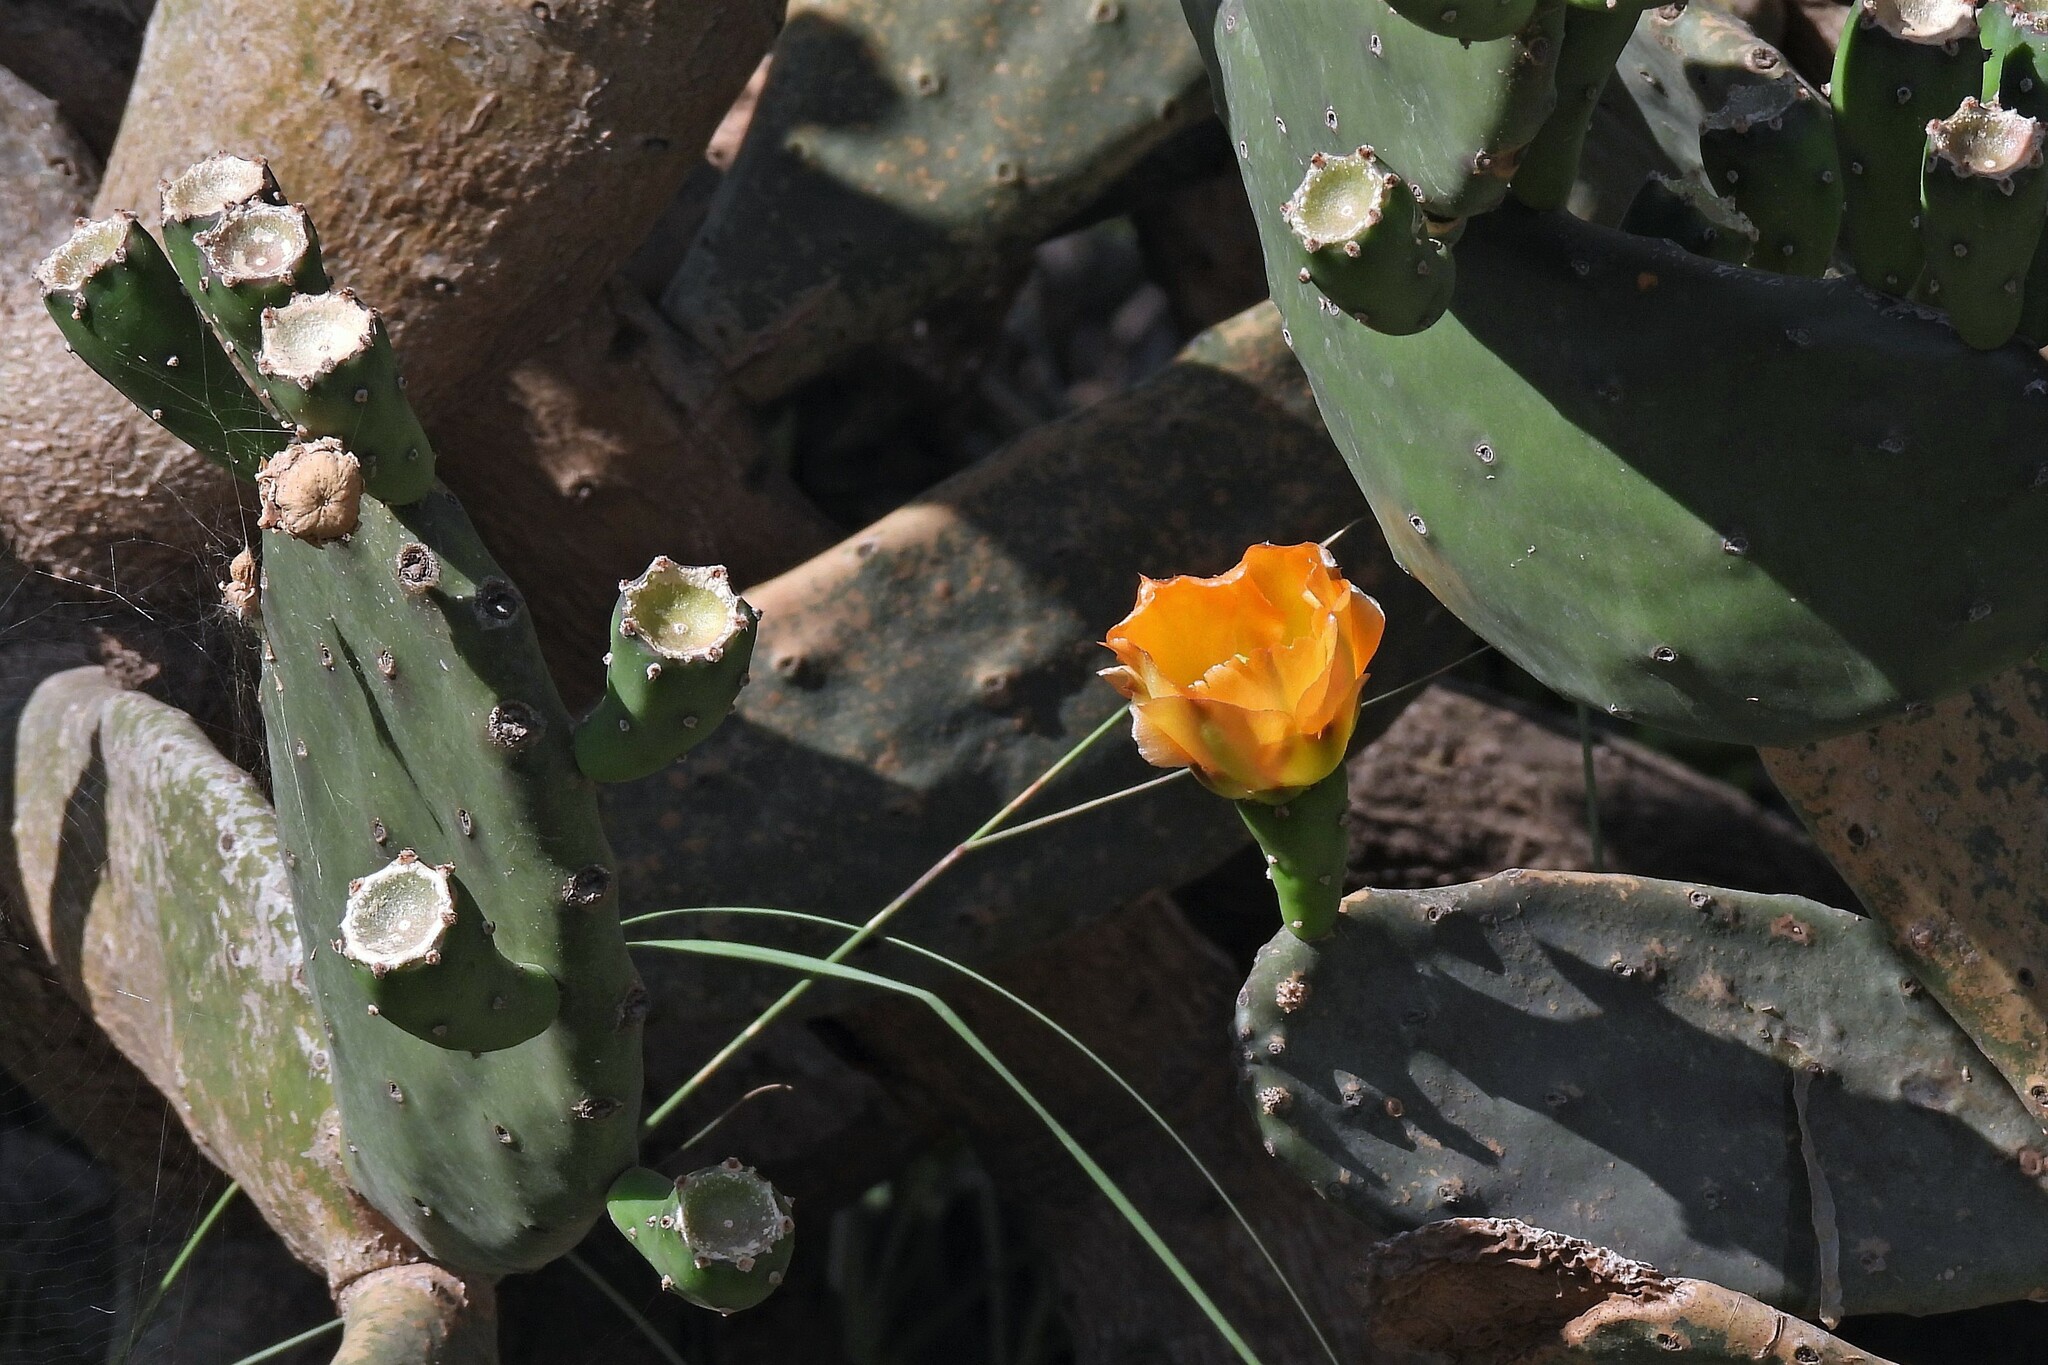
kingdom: Plantae
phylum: Tracheophyta
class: Magnoliopsida
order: Caryophyllales
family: Cactaceae
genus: Opuntia
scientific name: Opuntia elata
